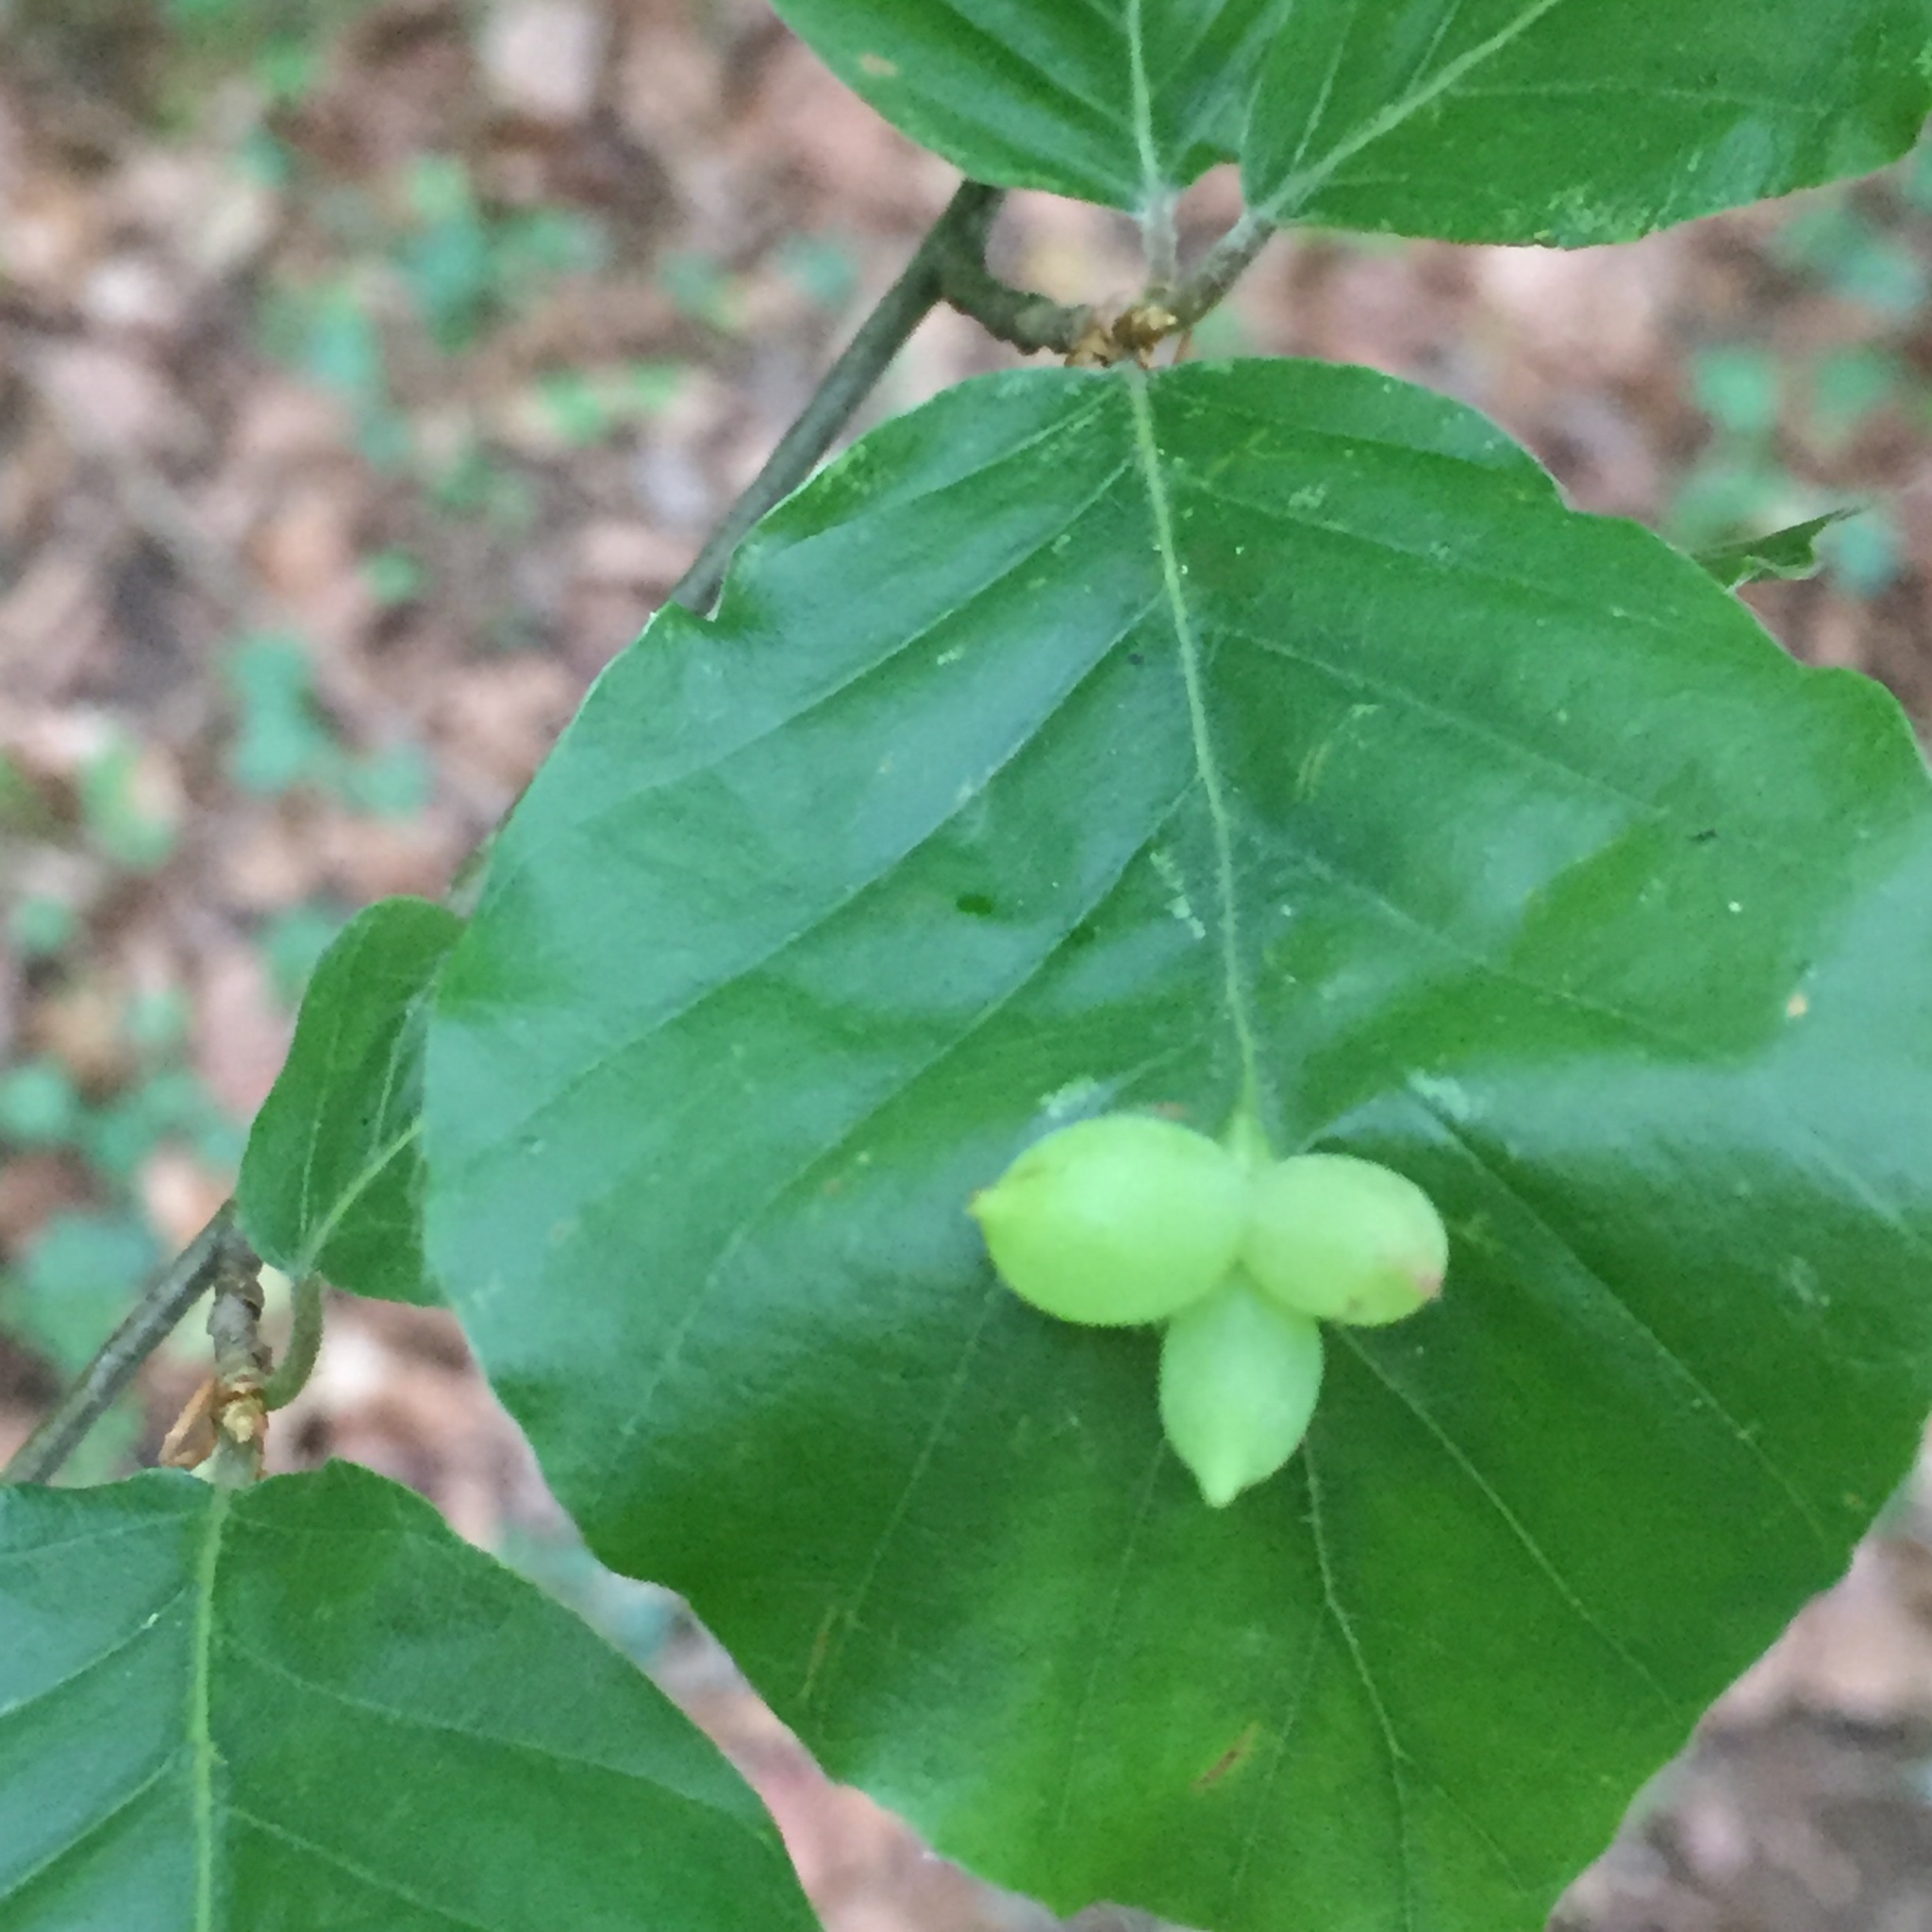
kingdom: Animalia
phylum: Arthropoda
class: Insecta
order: Diptera
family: Cecidomyiidae
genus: Mikiola
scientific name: Mikiola fagi
